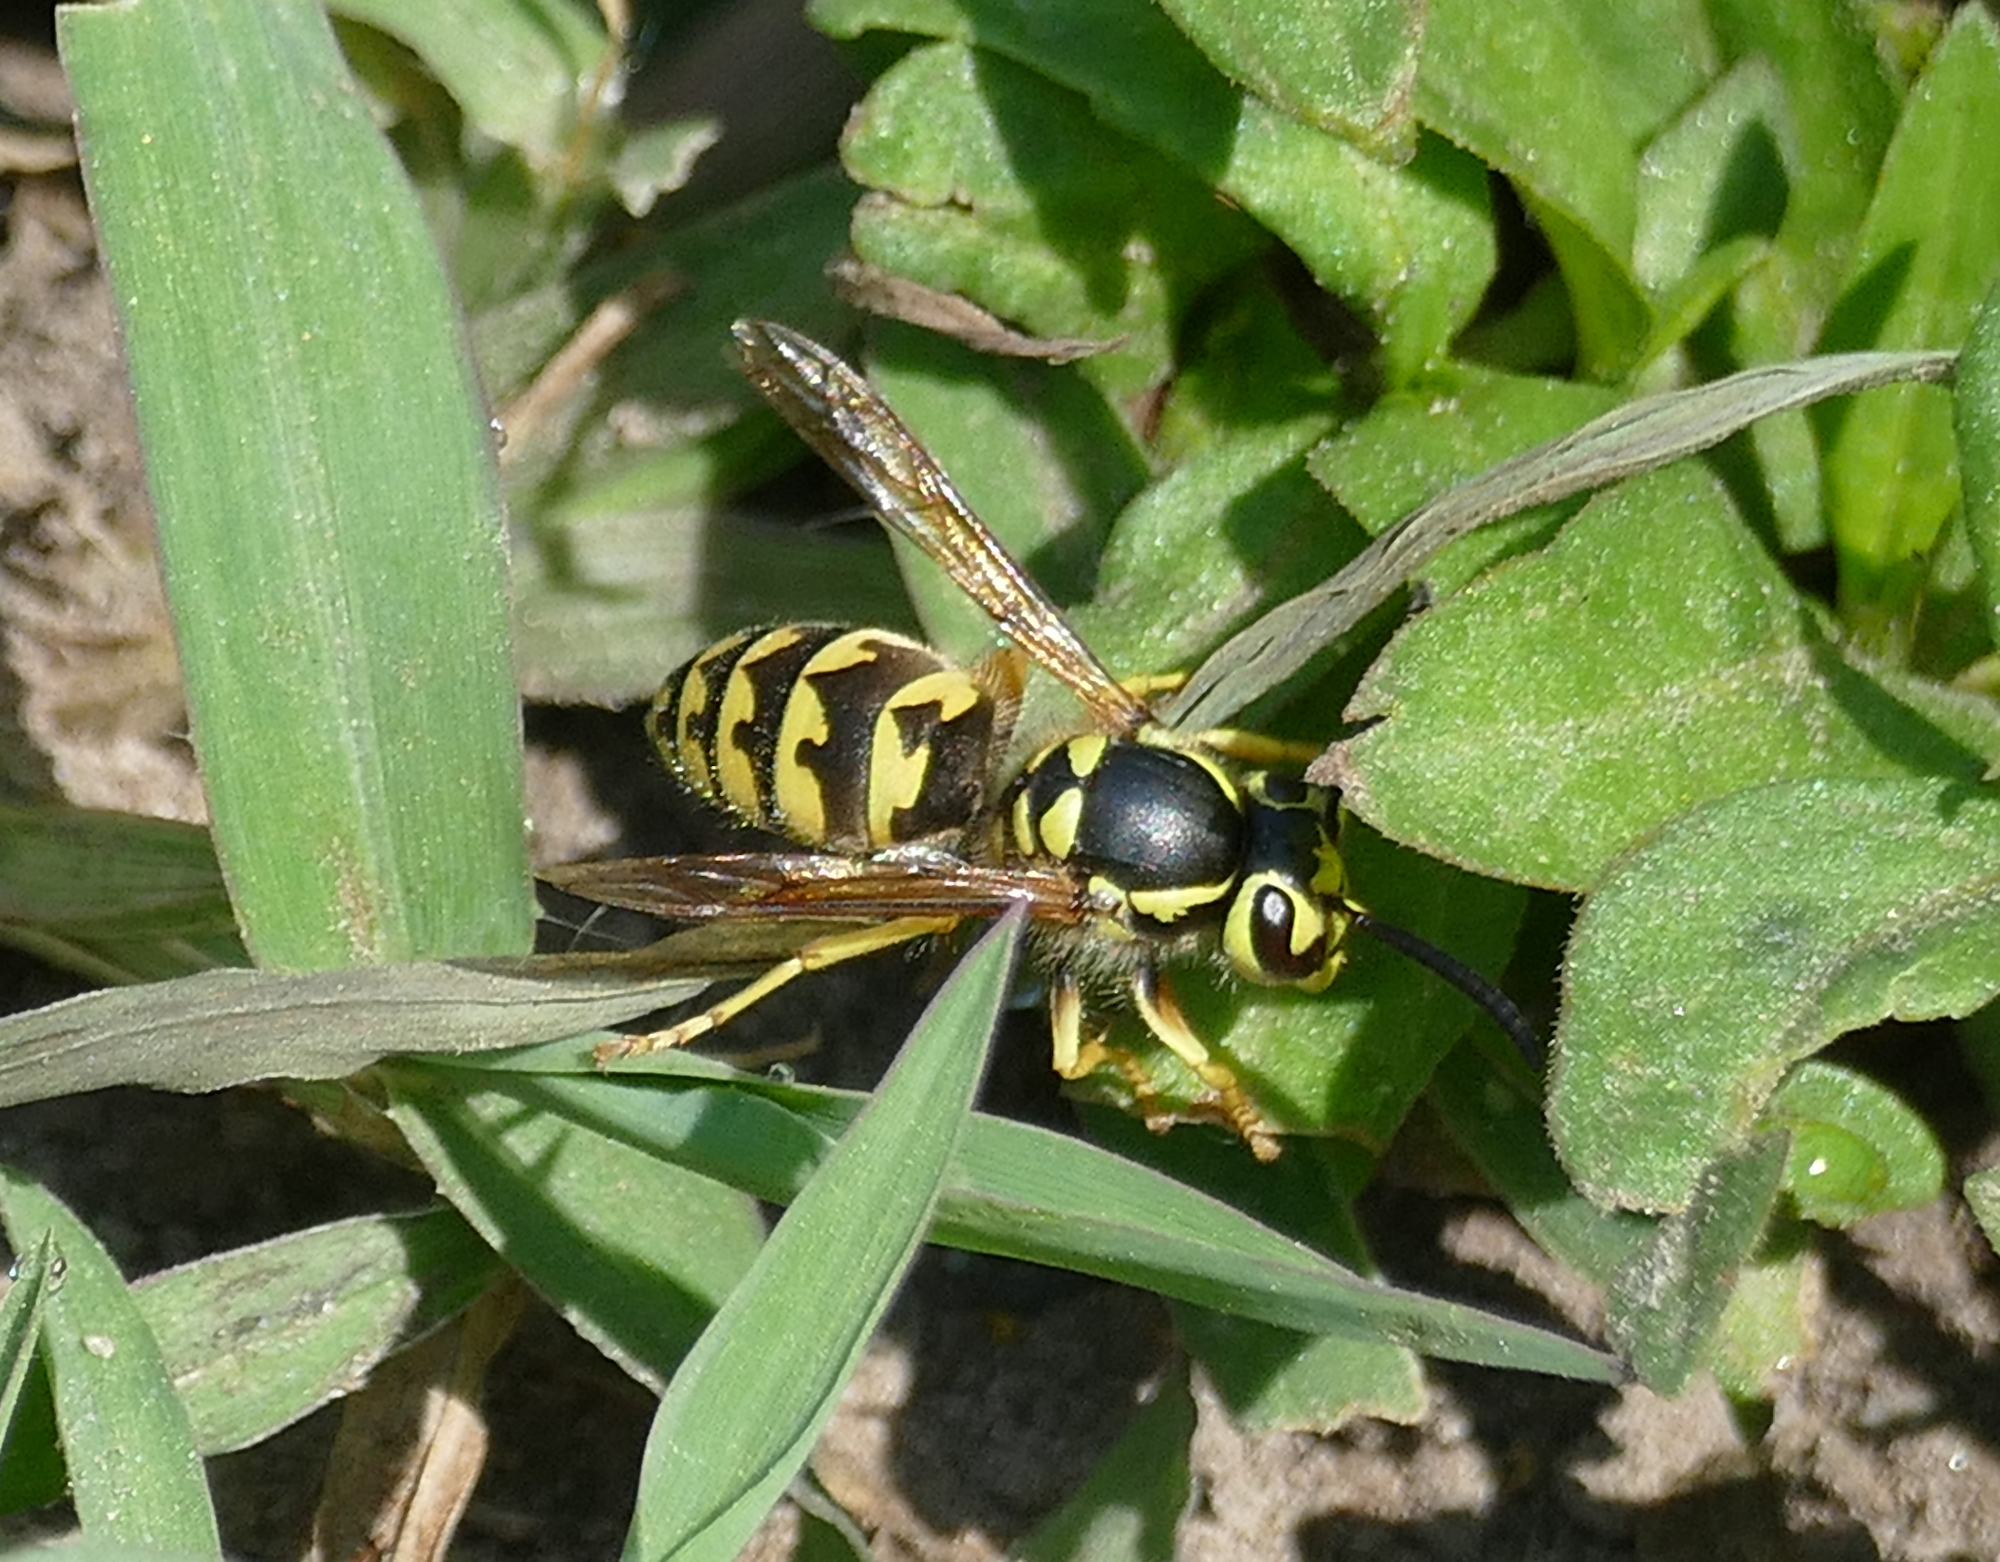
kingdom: Animalia
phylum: Arthropoda
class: Insecta
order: Hymenoptera
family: Vespidae
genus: Vespula
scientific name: Vespula pensylvanica
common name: Western yellowjacket
